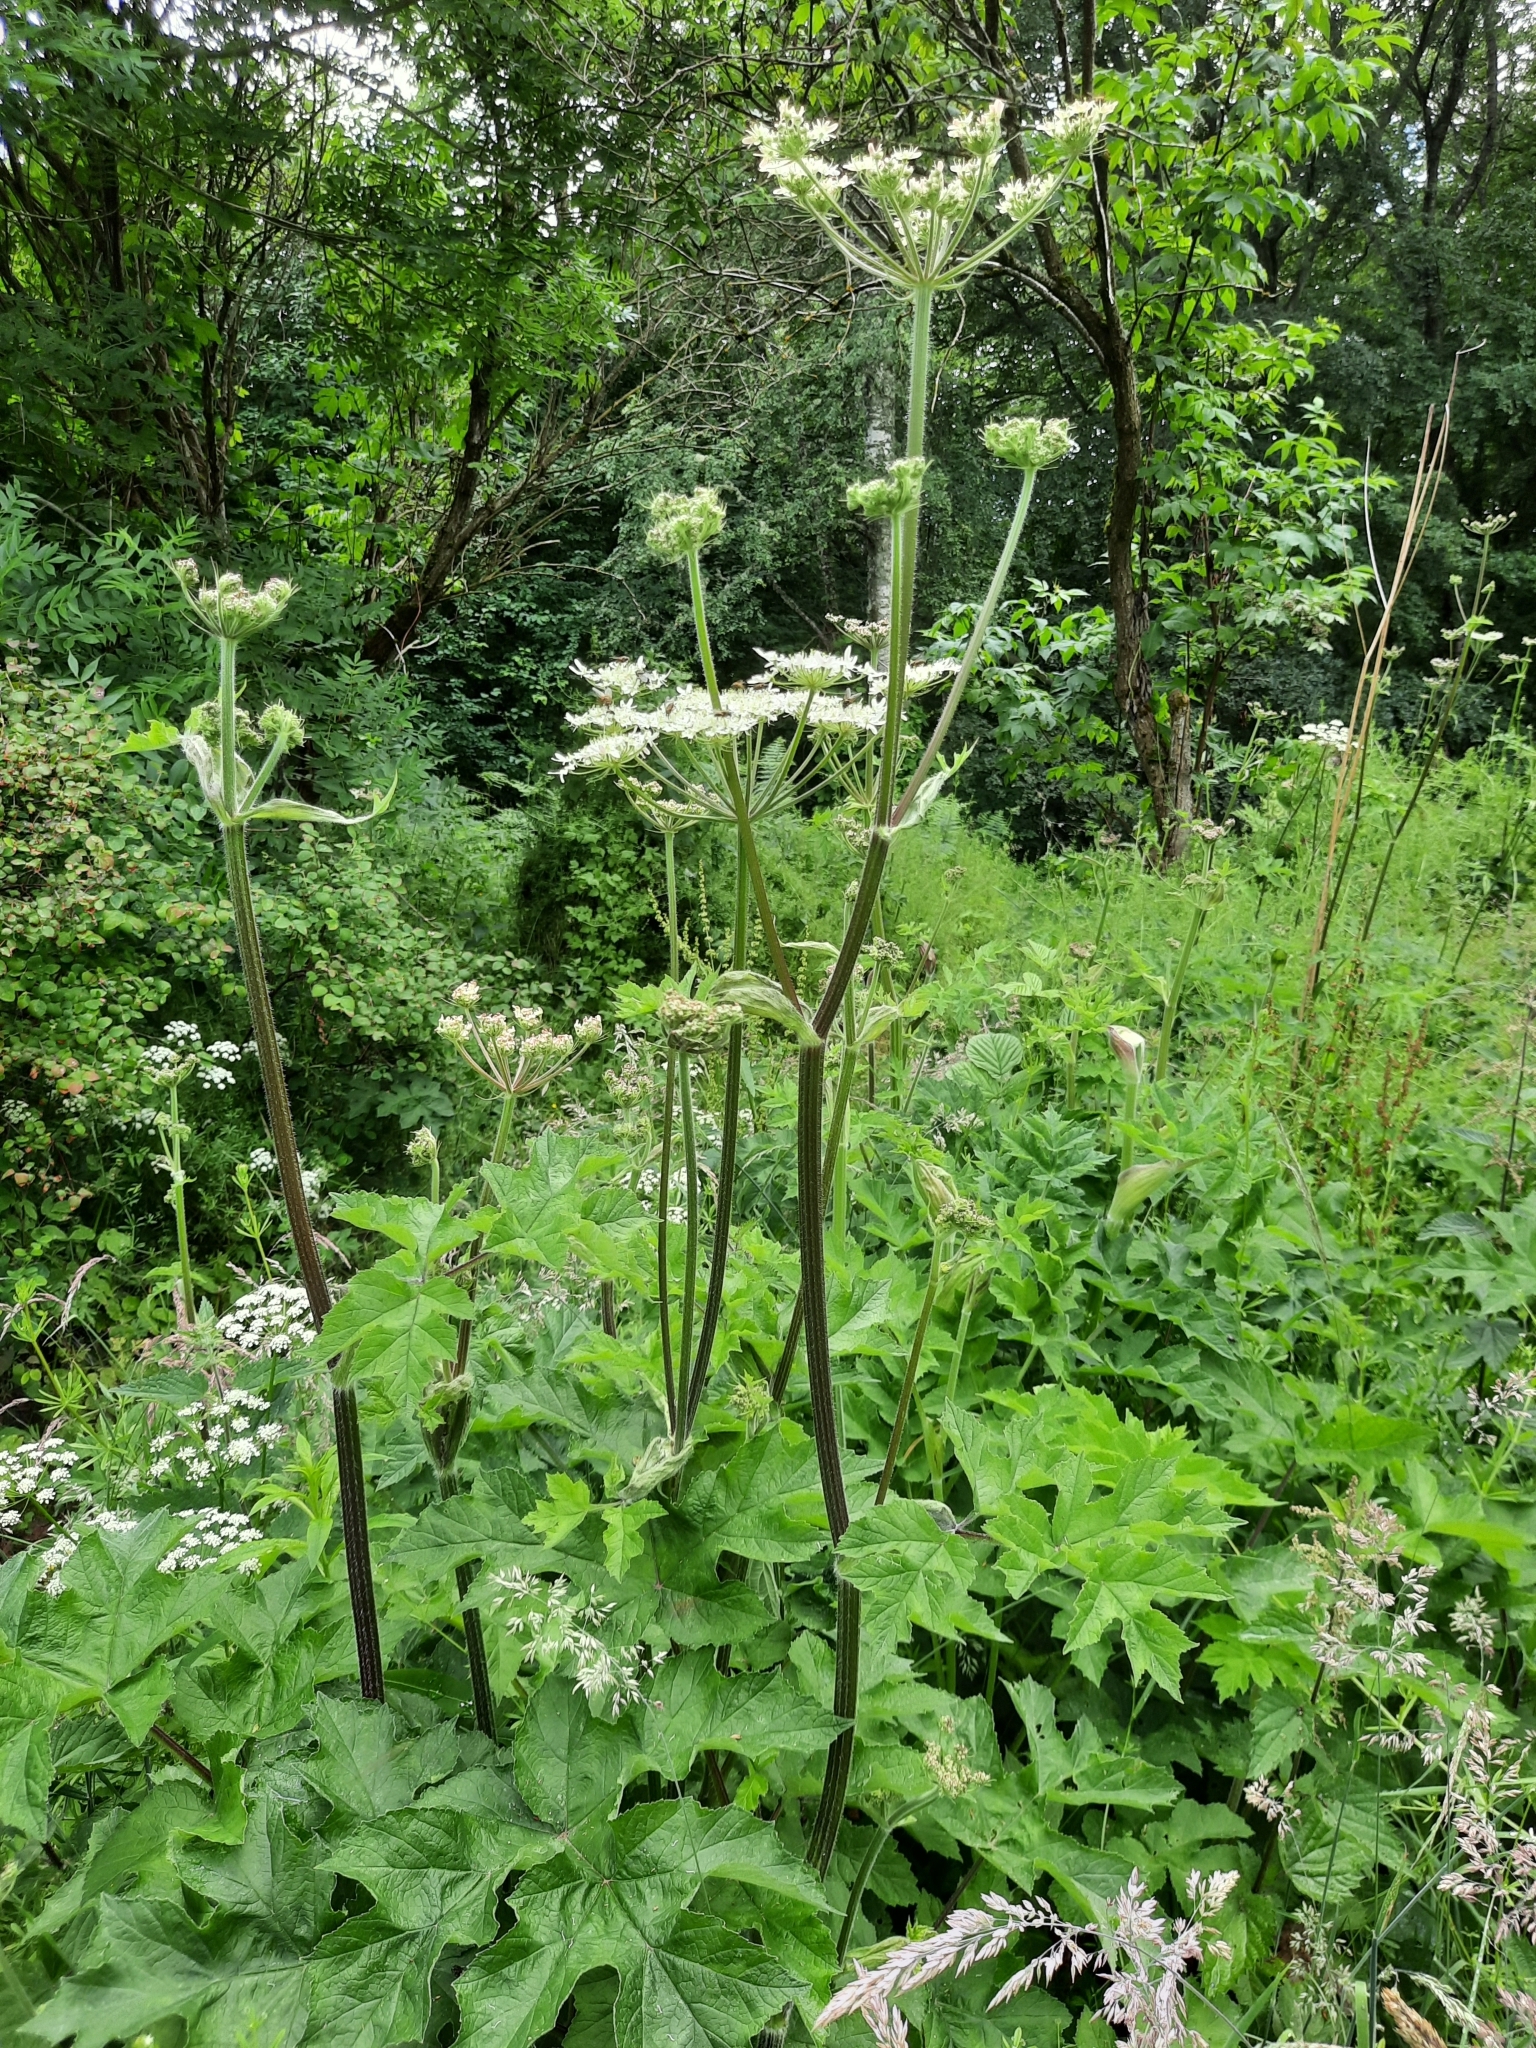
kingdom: Plantae
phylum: Tracheophyta
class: Magnoliopsida
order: Apiales
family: Apiaceae
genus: Heracleum
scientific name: Heracleum sphondylium
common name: Hogweed
